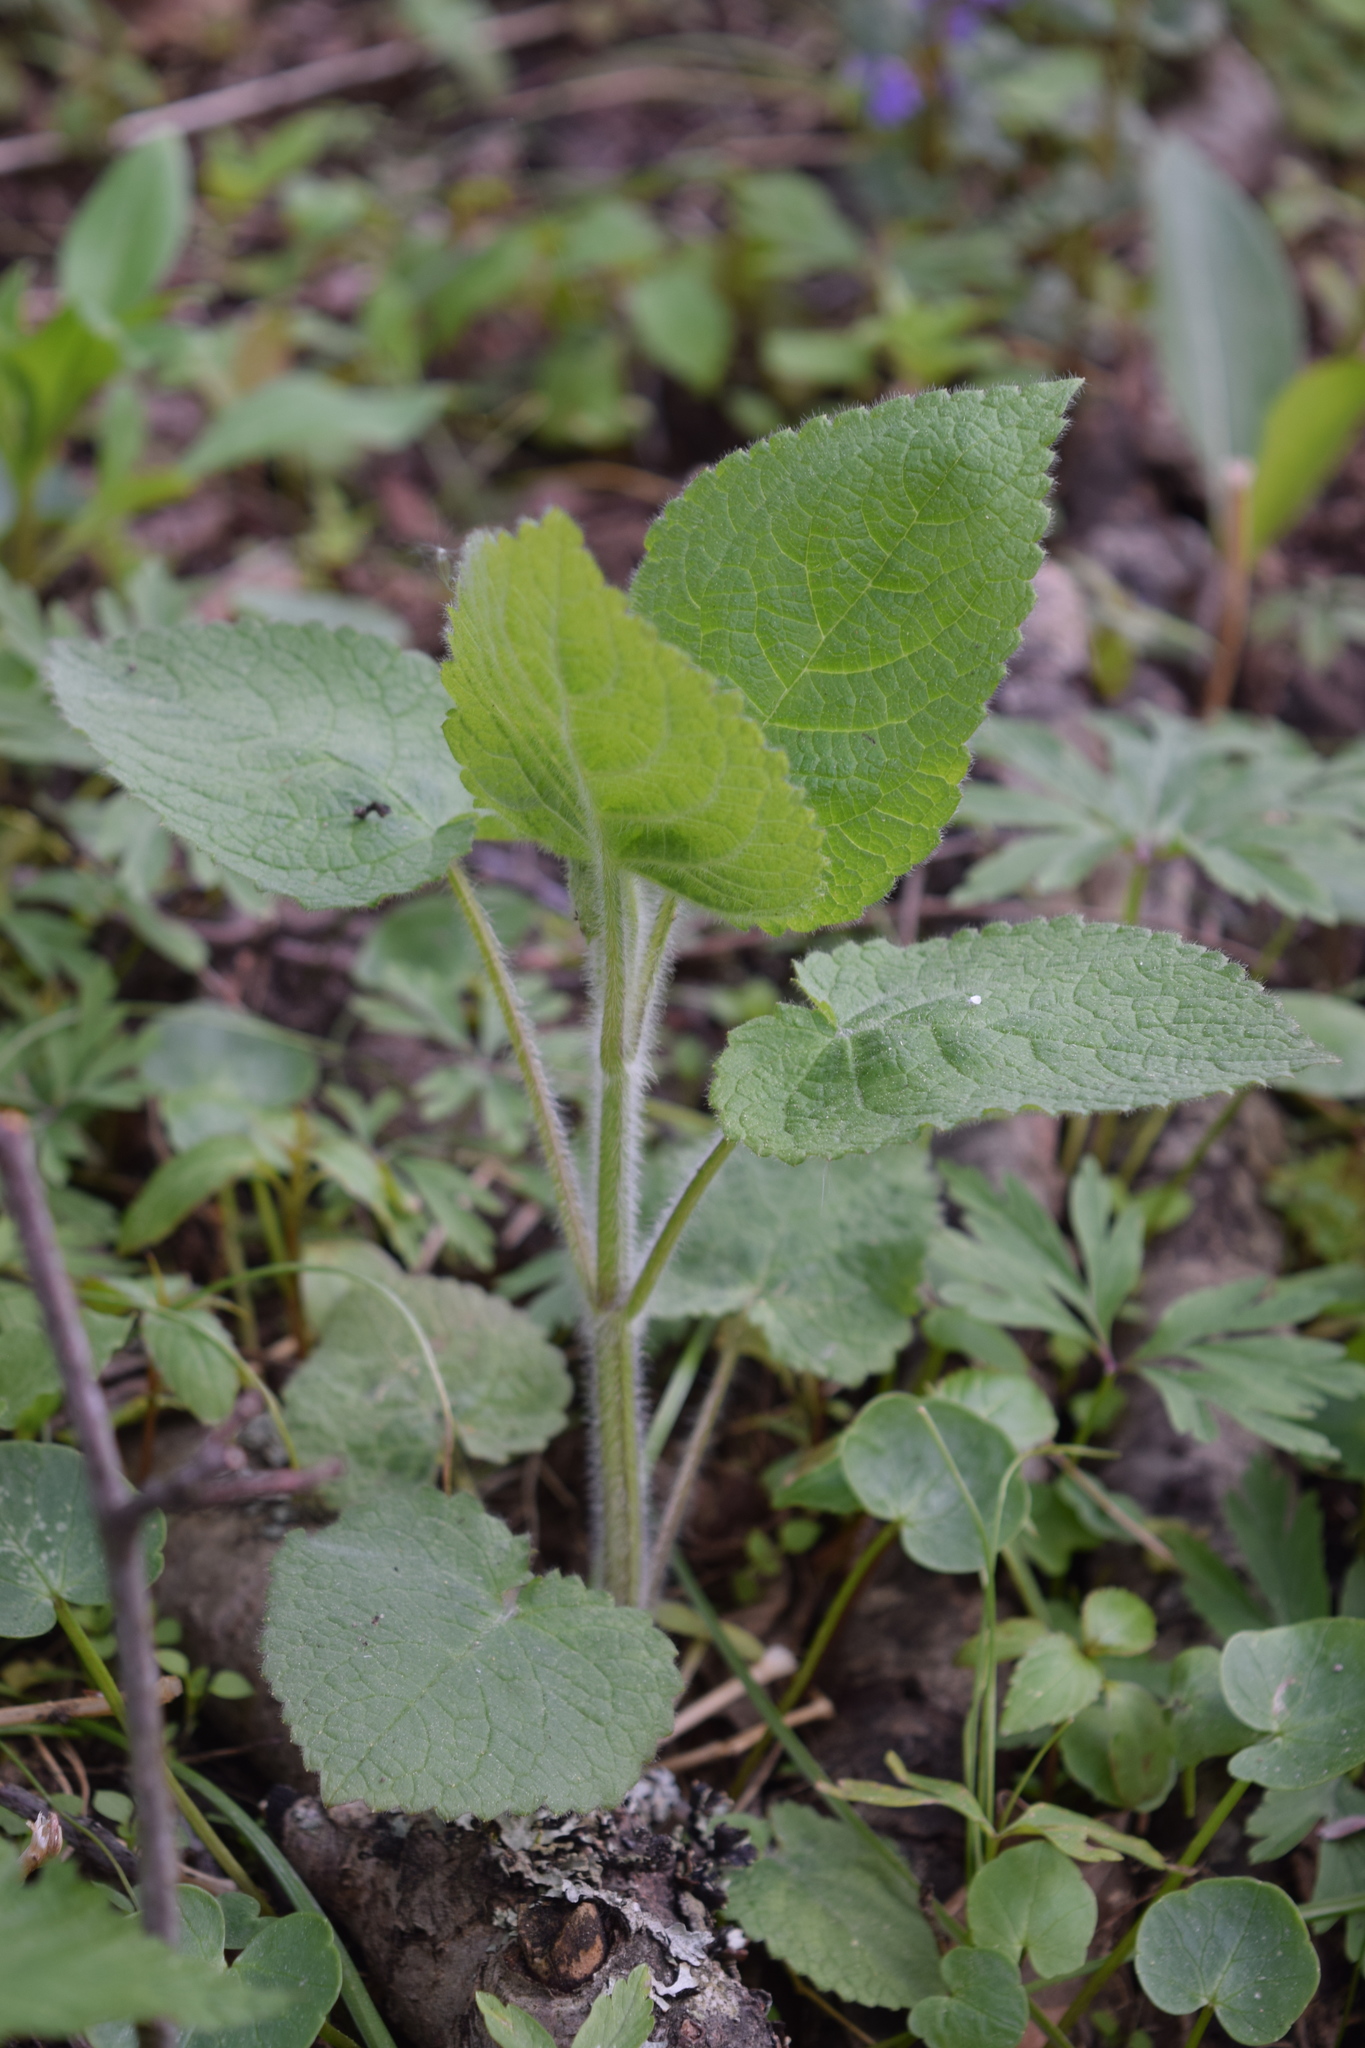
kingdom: Plantae
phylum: Tracheophyta
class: Magnoliopsida
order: Lamiales
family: Lamiaceae
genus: Stachys
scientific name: Stachys sylvatica
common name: Hedge woundwort
